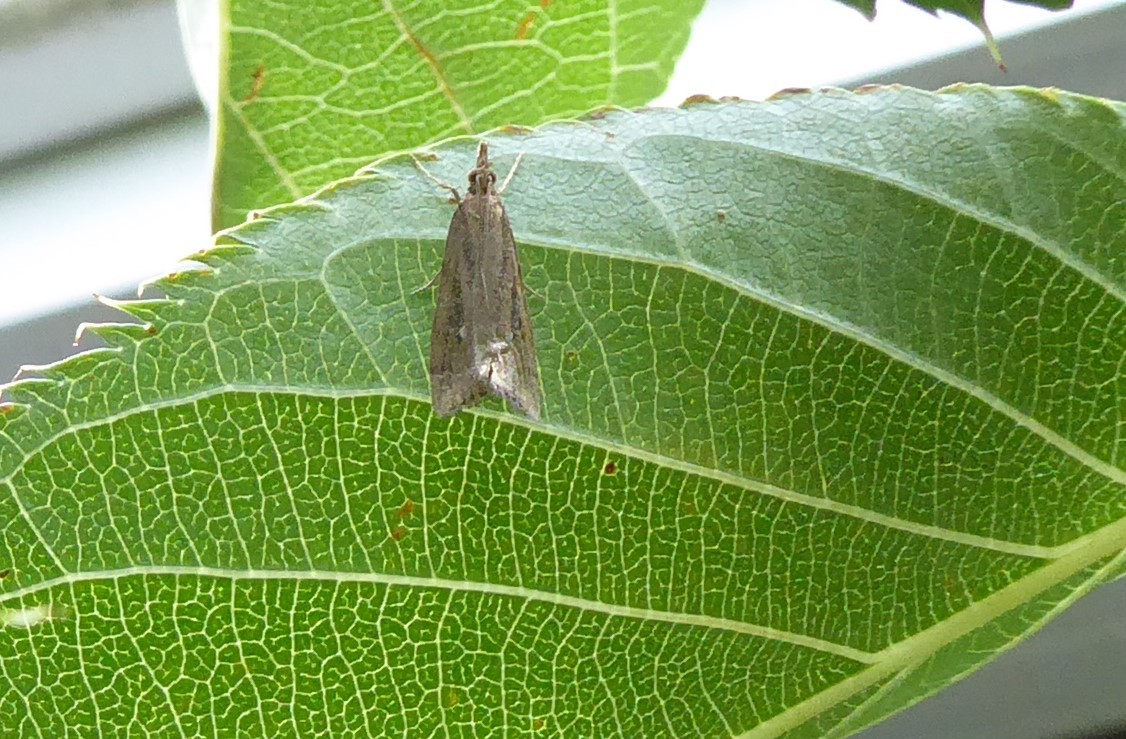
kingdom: Animalia
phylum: Arthropoda
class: Insecta
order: Lepidoptera
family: Crambidae
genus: Eudonia
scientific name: Eudonia octophora
